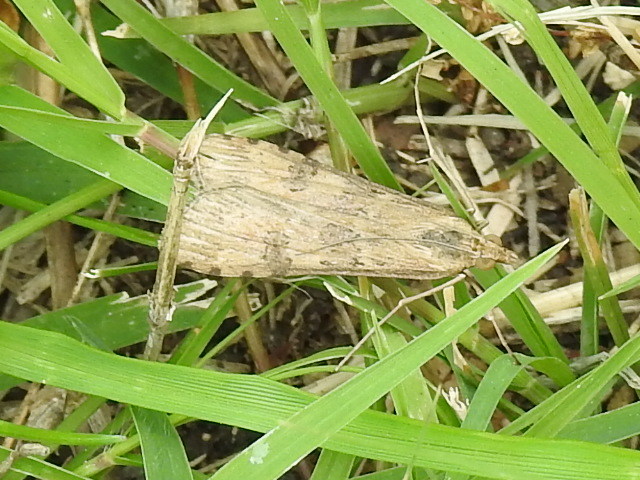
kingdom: Animalia
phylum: Arthropoda
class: Insecta
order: Lepidoptera
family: Crambidae
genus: Nomophila
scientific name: Nomophila nearctica
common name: American rush veneer
